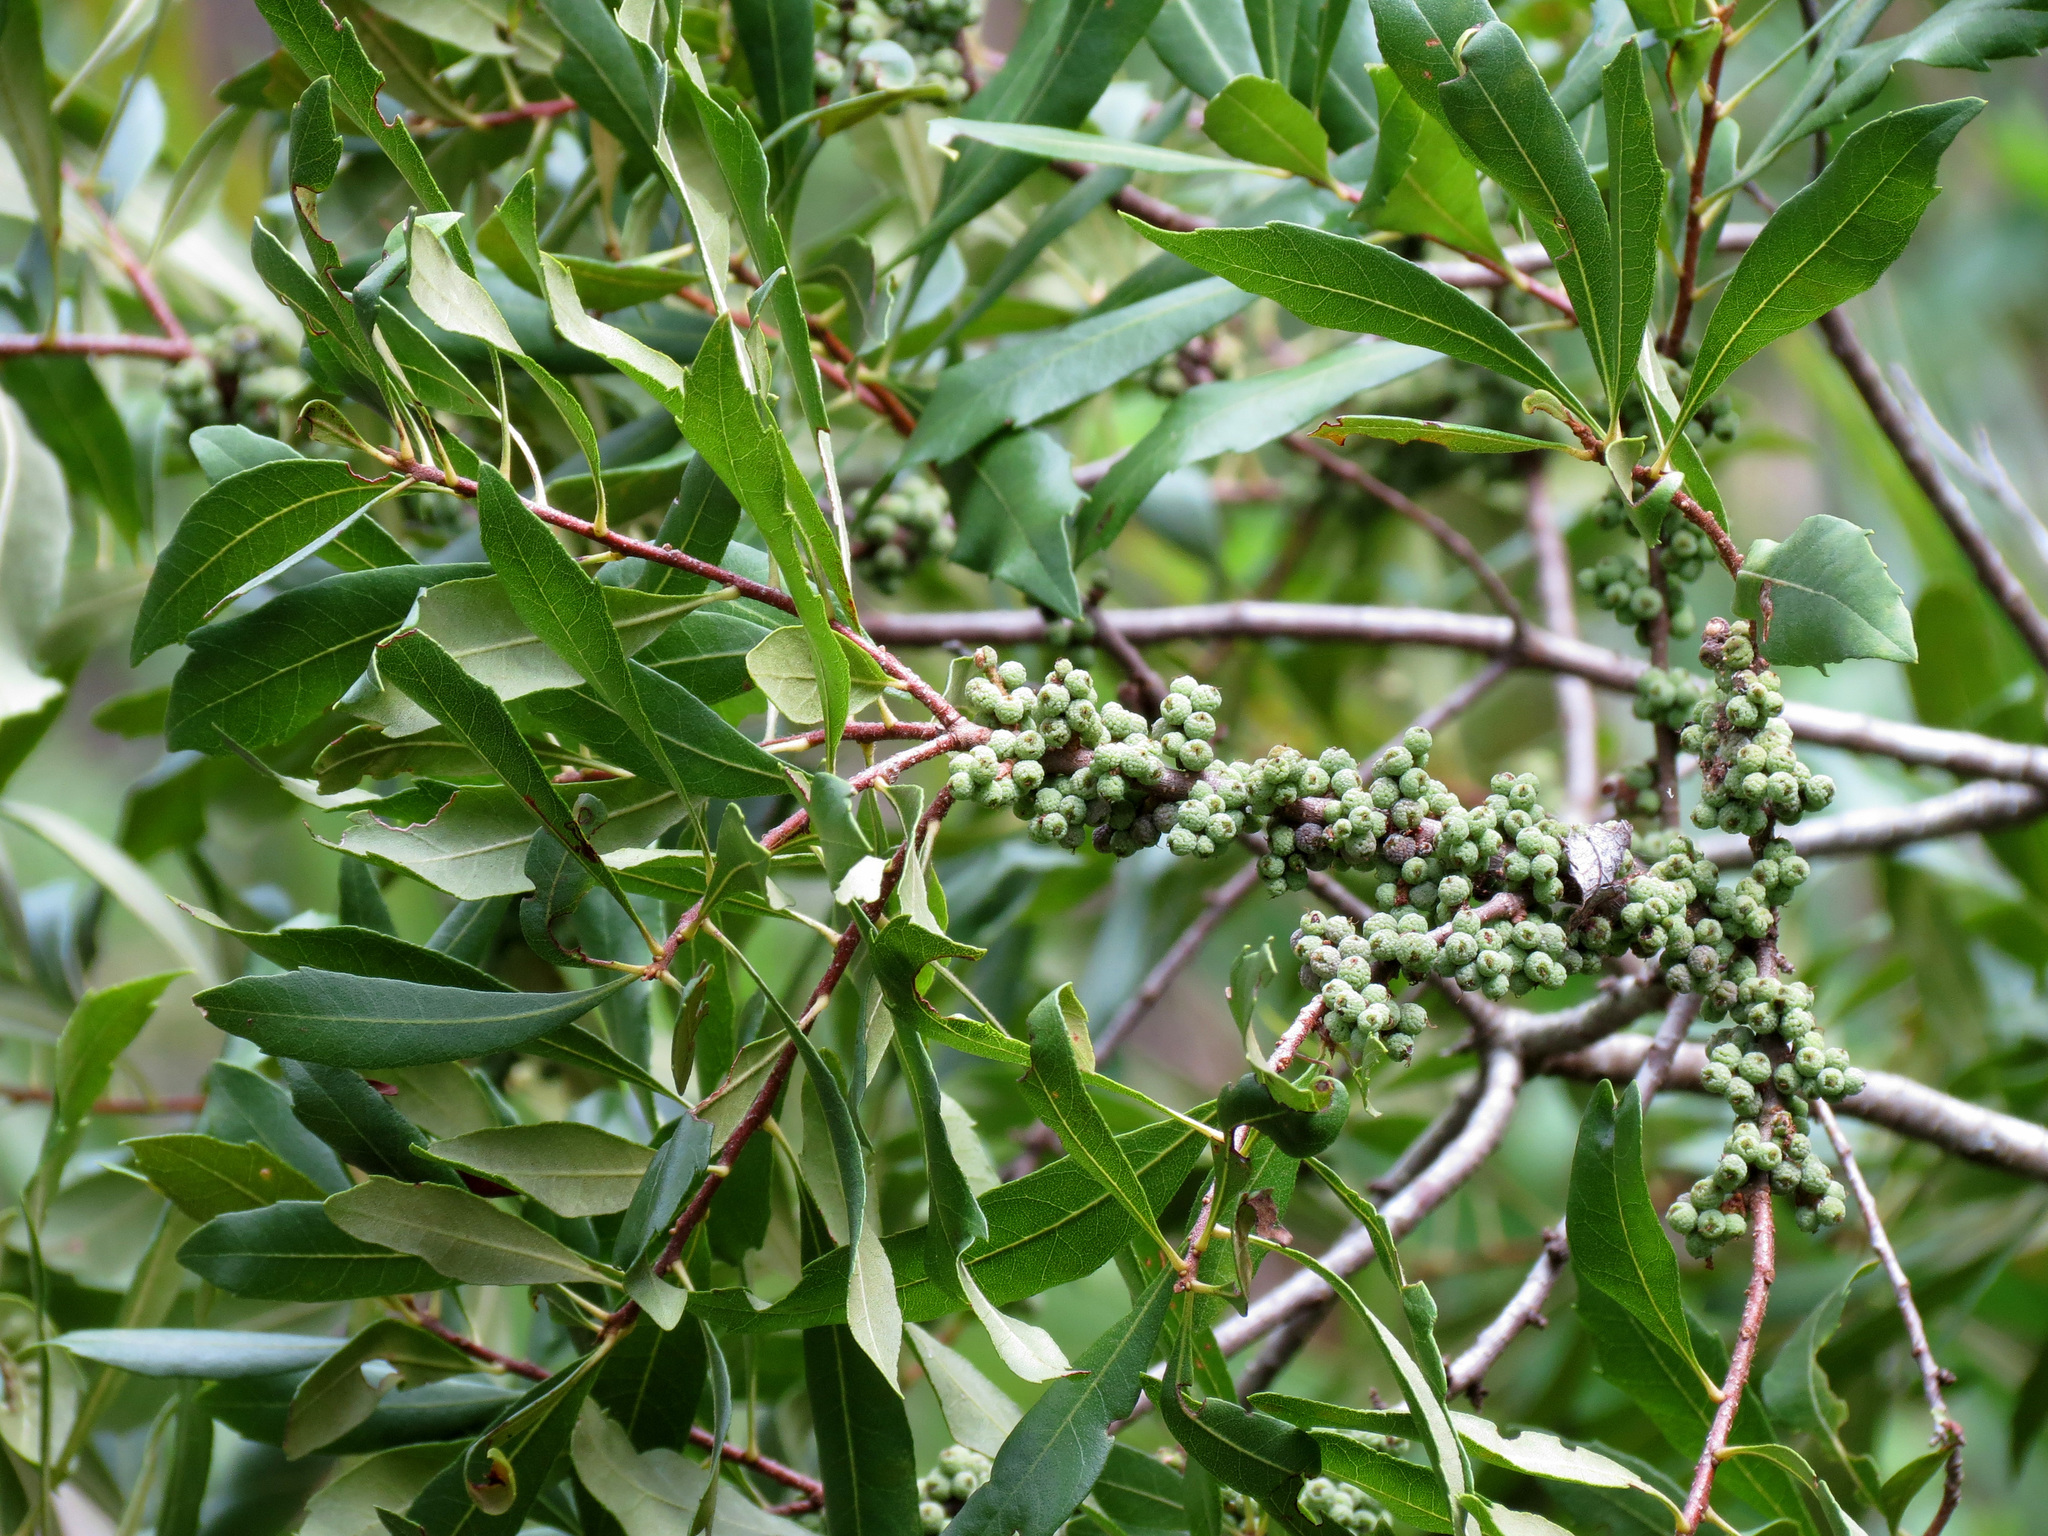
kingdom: Plantae
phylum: Tracheophyta
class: Magnoliopsida
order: Fagales
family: Myricaceae
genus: Morella
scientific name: Morella cerifera
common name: Wax myrtle
